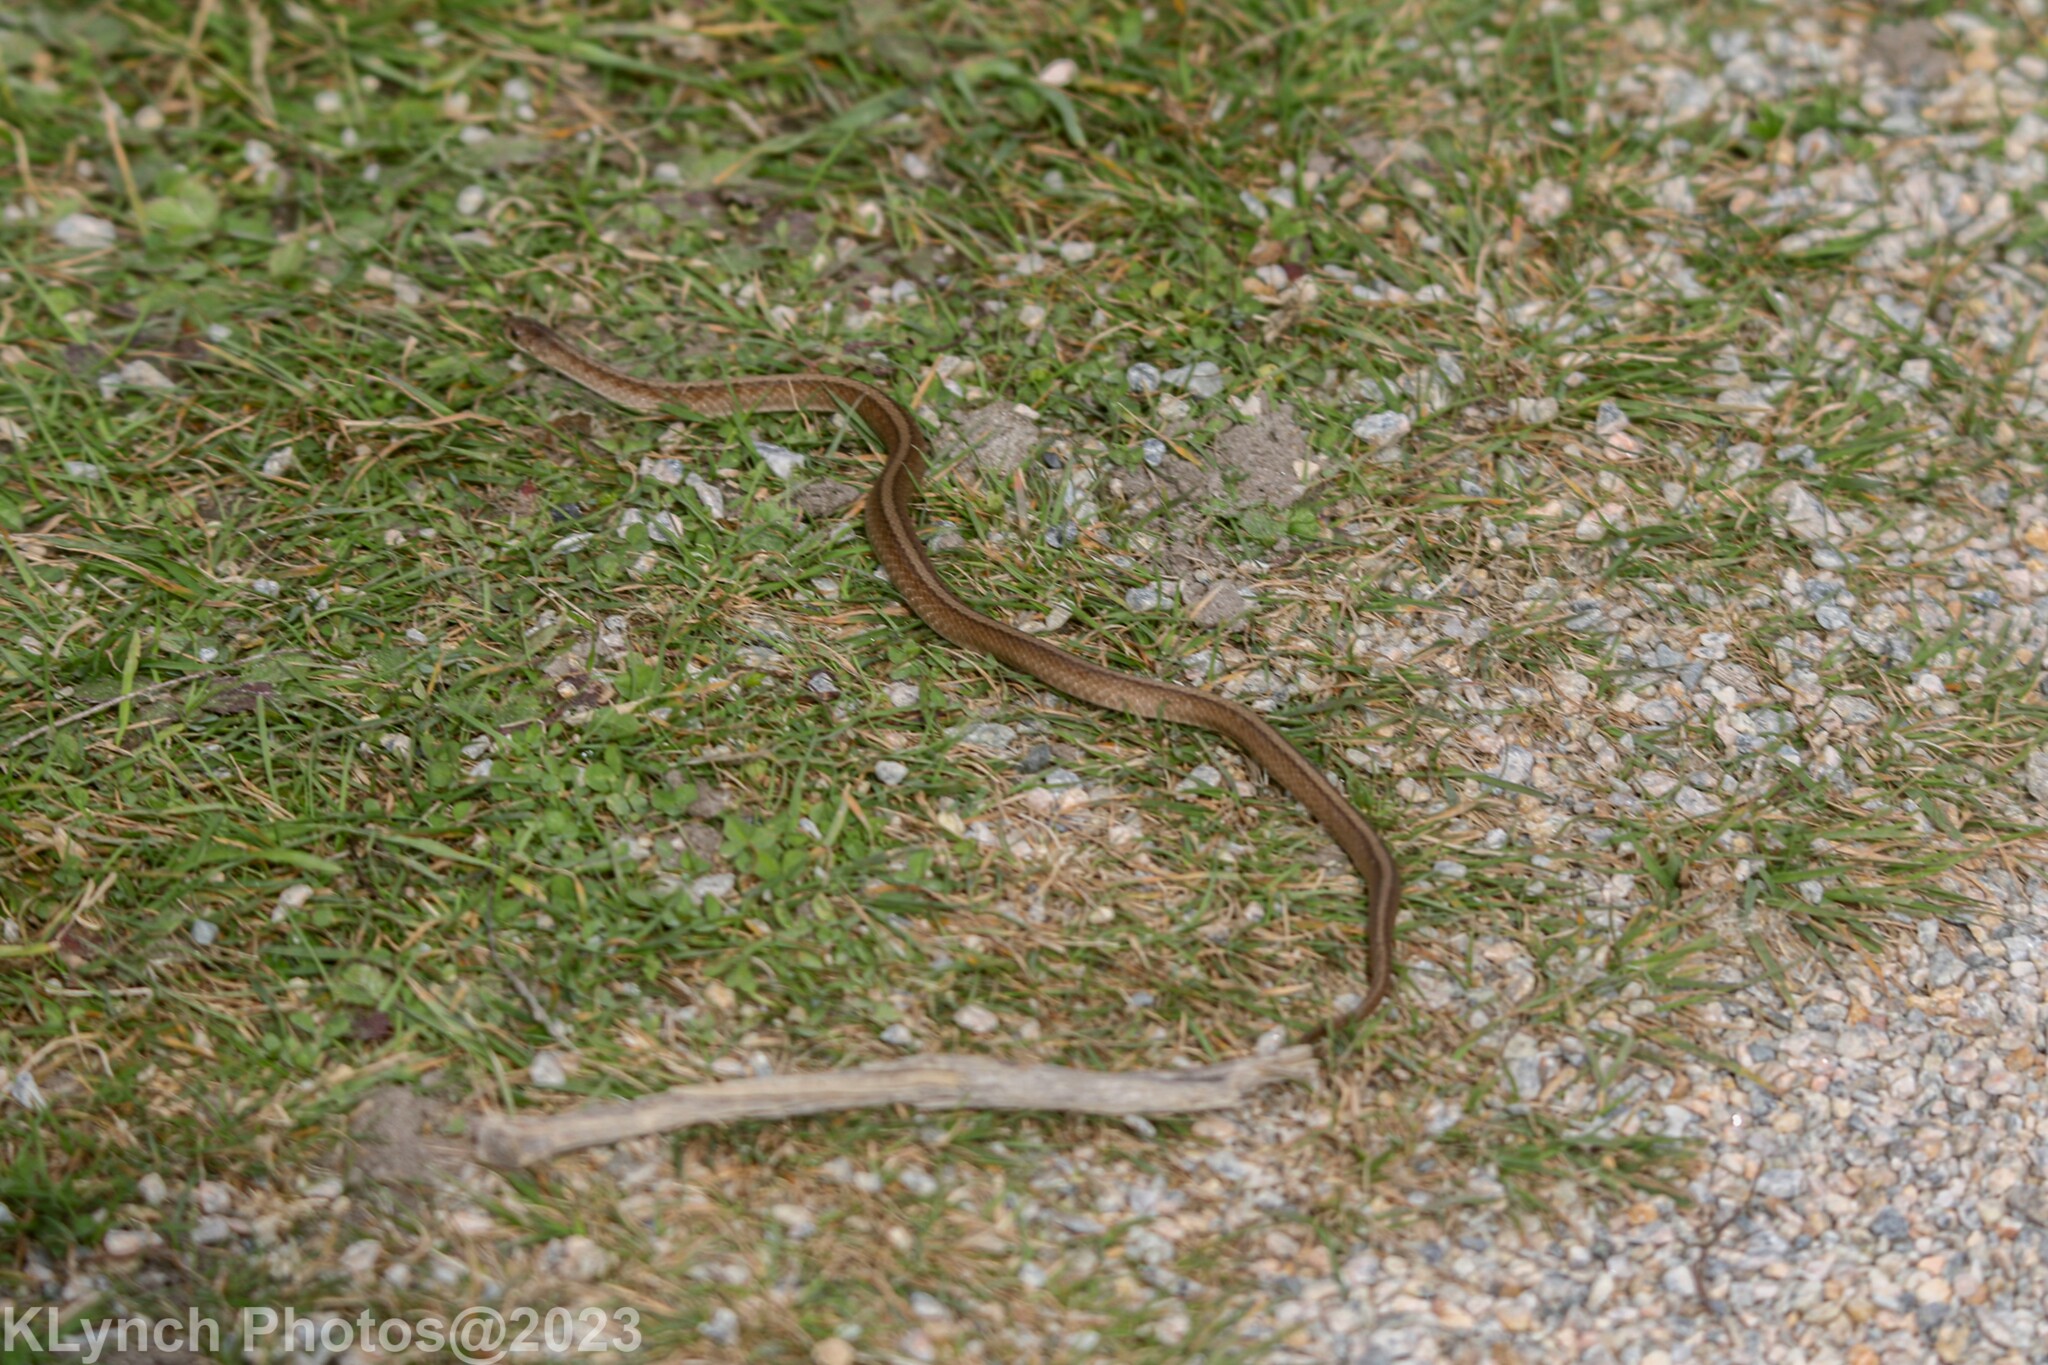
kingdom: Animalia
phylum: Chordata
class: Squamata
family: Colubridae
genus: Storeria
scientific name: Storeria dekayi
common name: (dekay’s) brown snake
